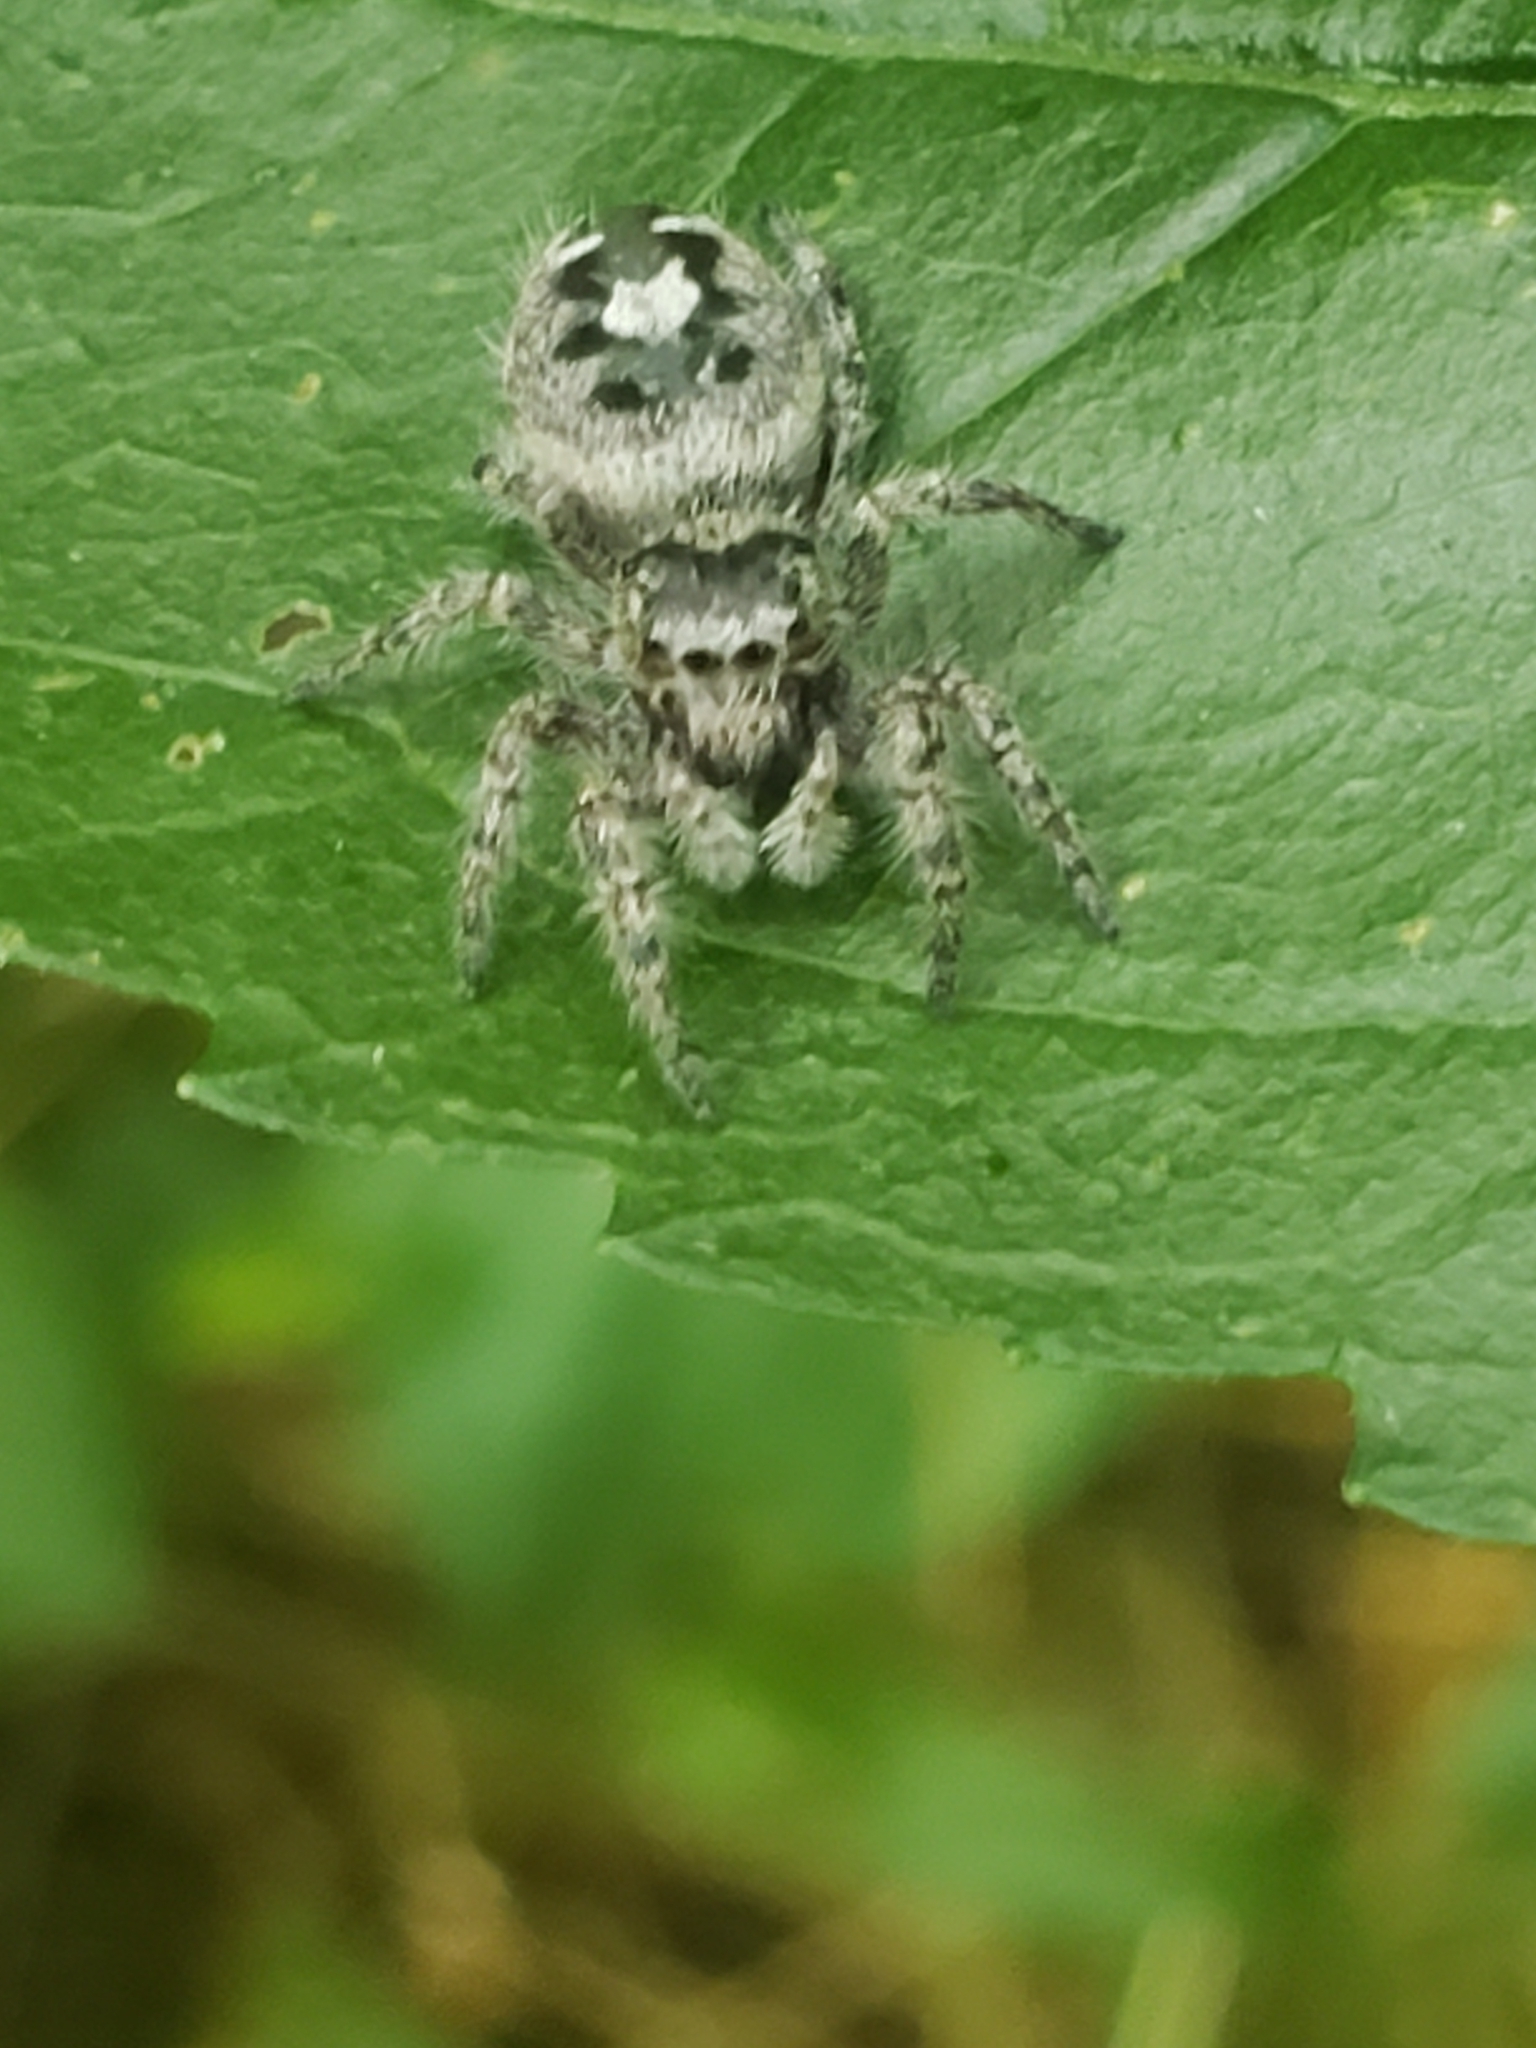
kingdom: Animalia
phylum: Arthropoda
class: Arachnida
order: Araneae
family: Salticidae
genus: Phidippus
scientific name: Phidippus putnami
